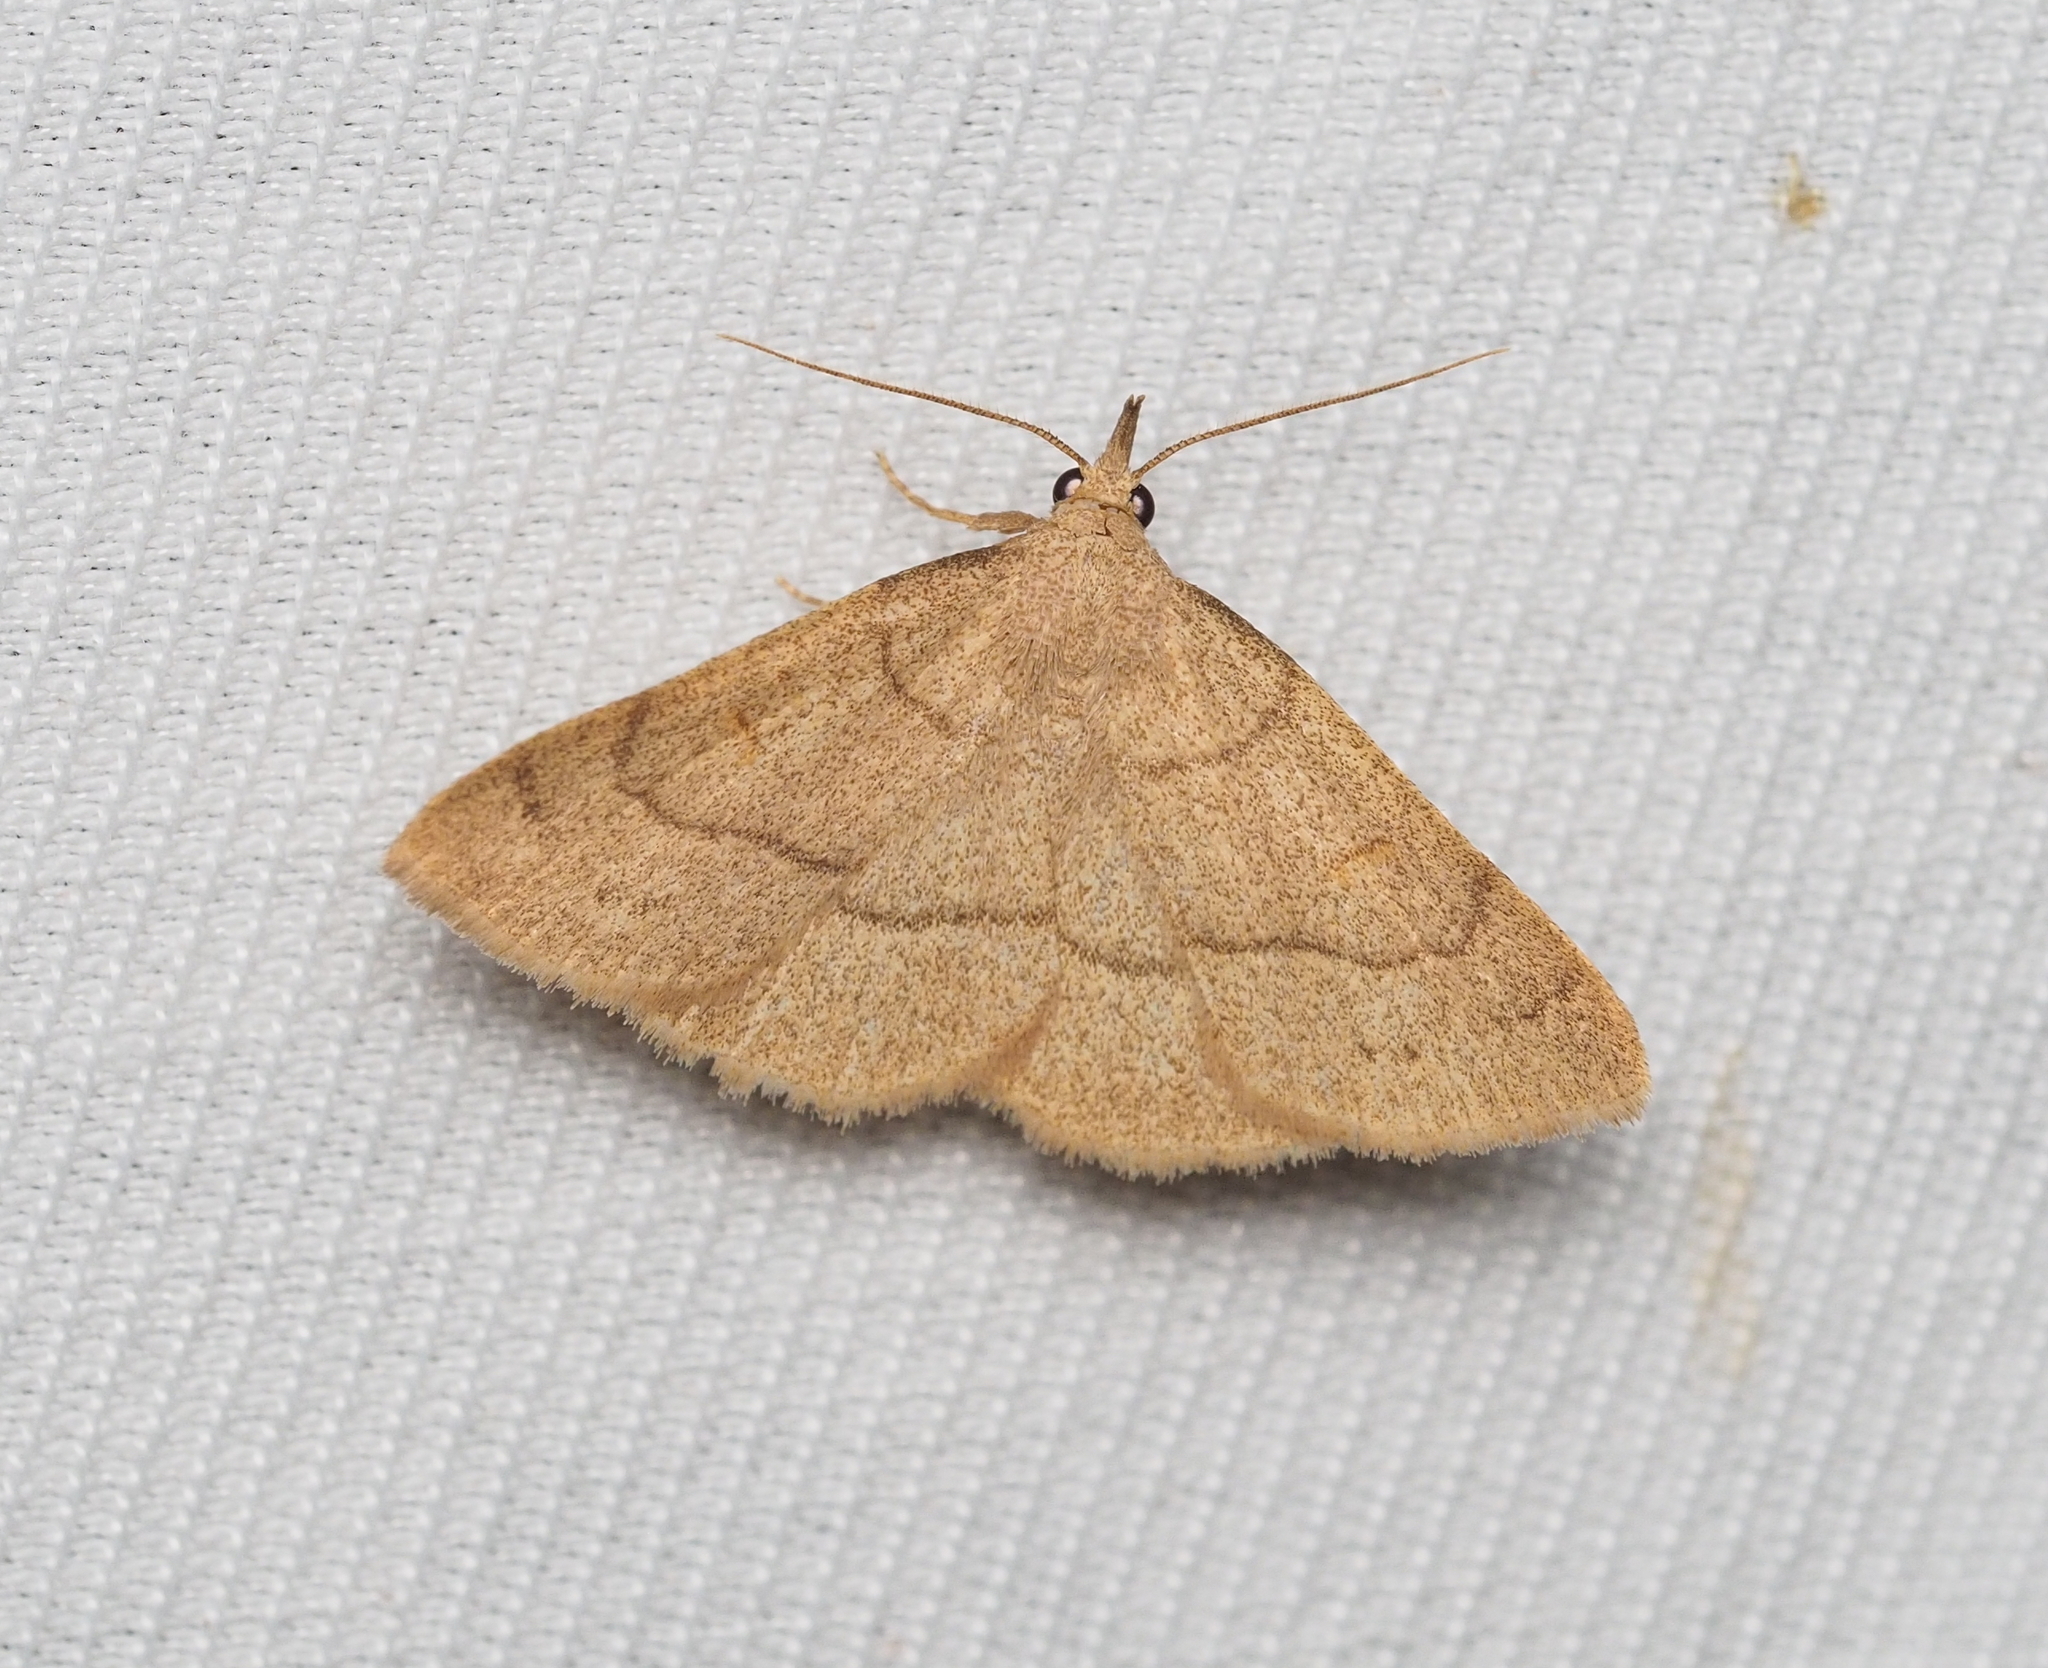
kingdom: Animalia
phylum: Arthropoda
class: Insecta
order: Lepidoptera
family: Erebidae
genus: Paracolax
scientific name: Paracolax tristalis
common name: Clay fan-foot
